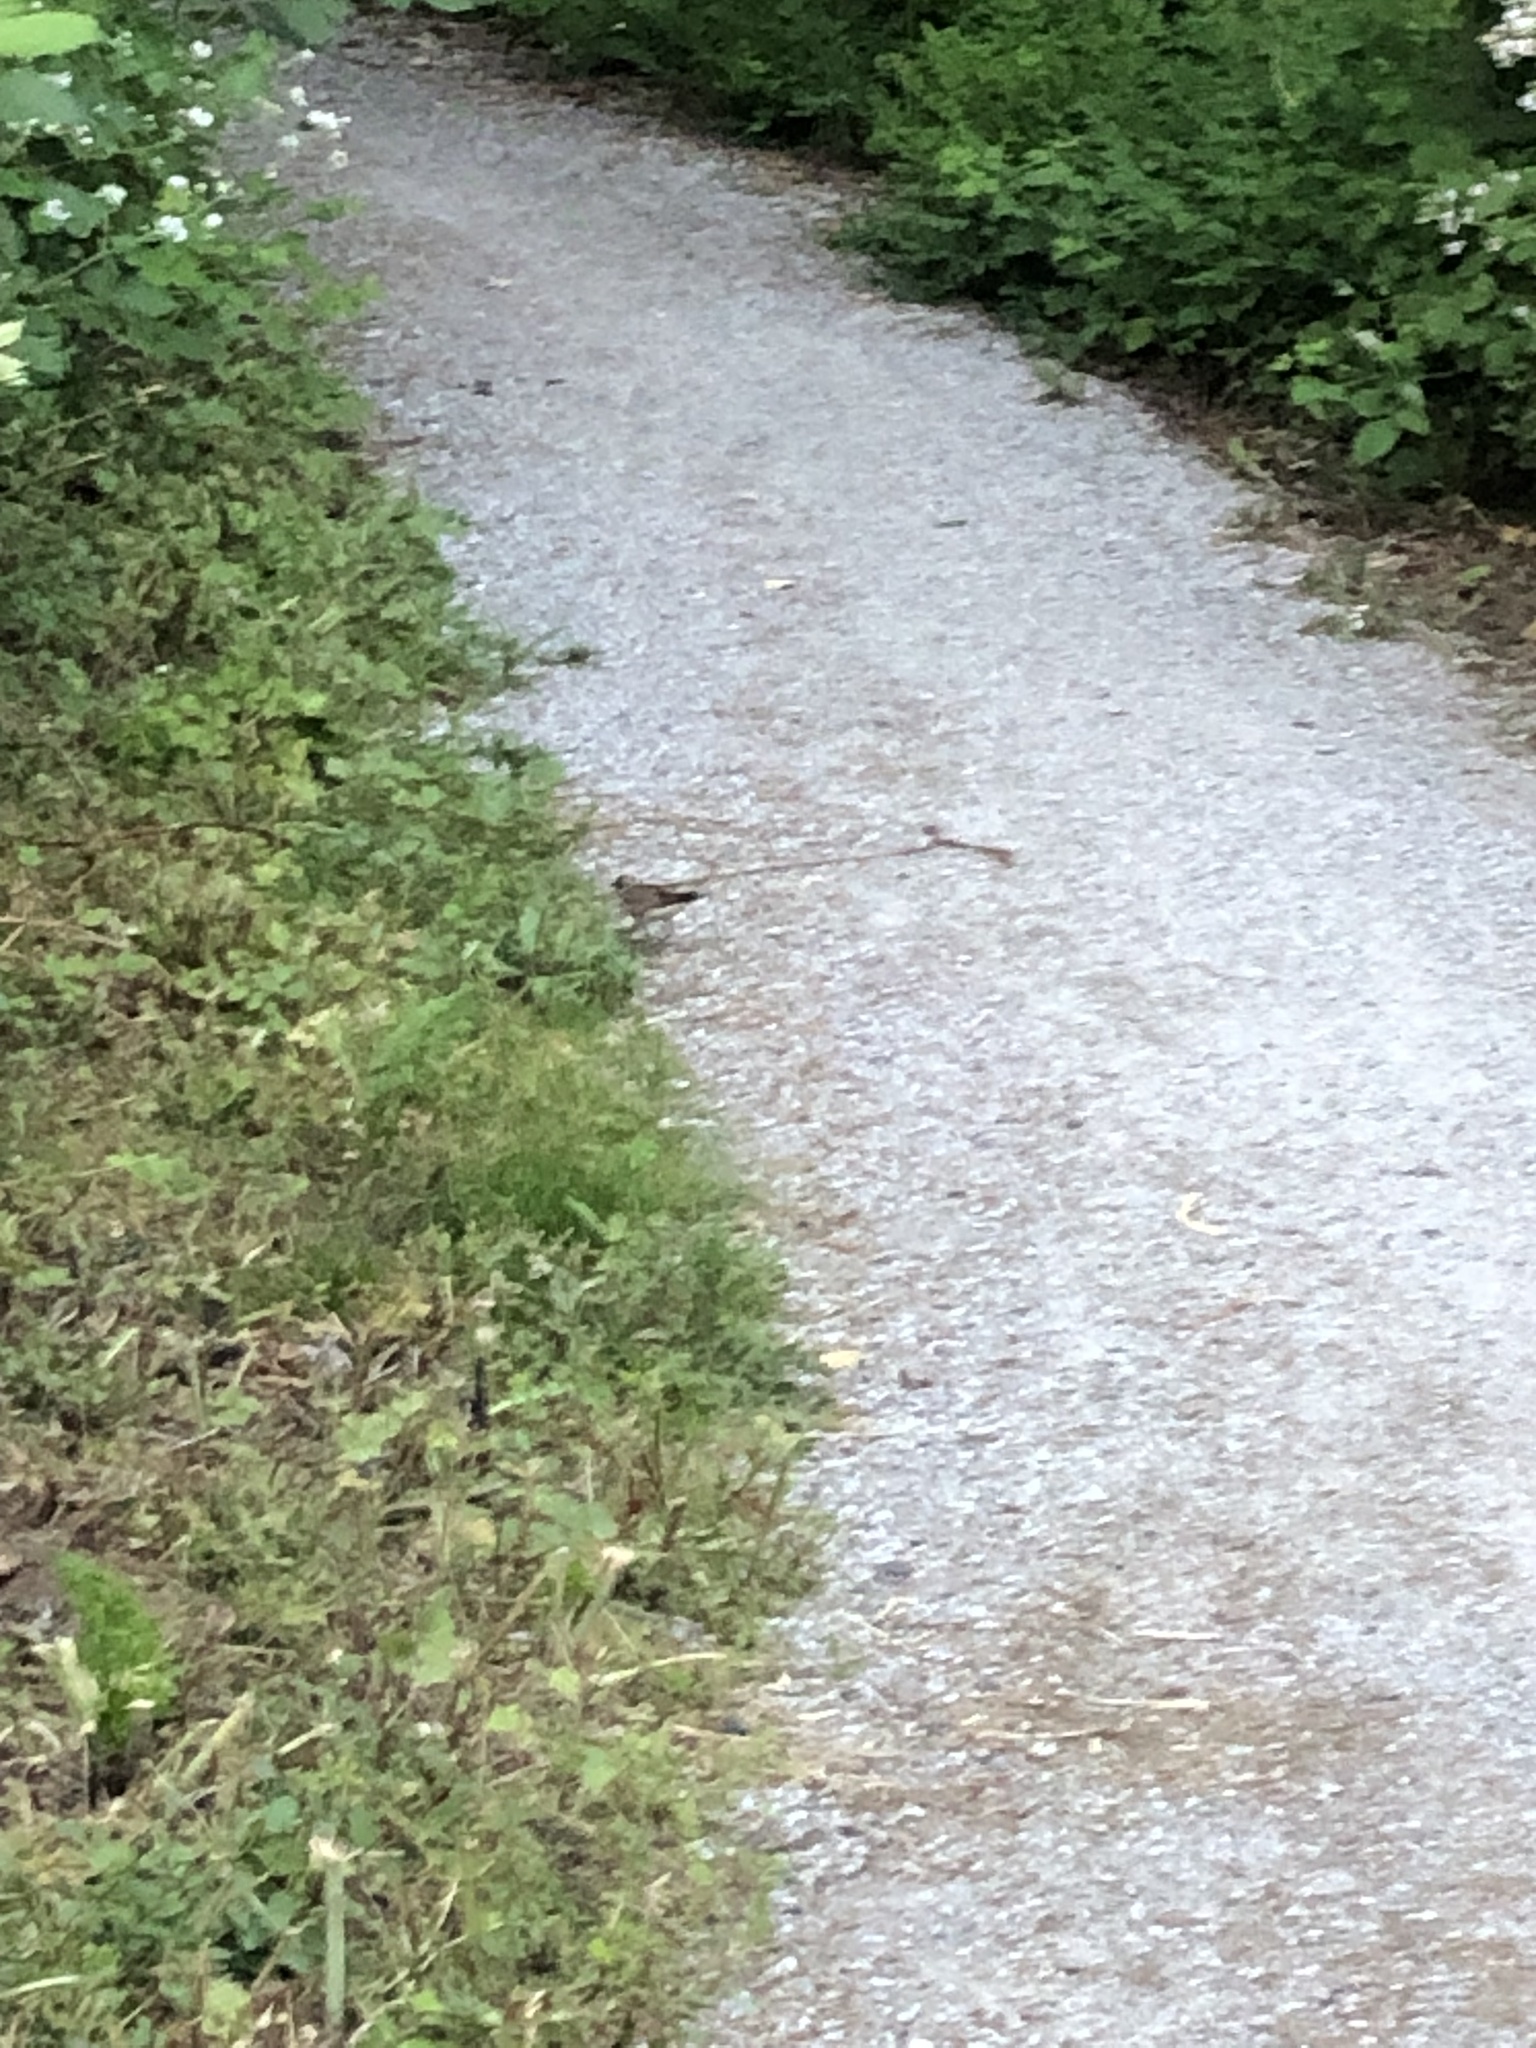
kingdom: Animalia
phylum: Chordata
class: Aves
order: Charadriiformes
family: Charadriidae
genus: Charadrius
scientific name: Charadrius vociferus
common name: Killdeer
